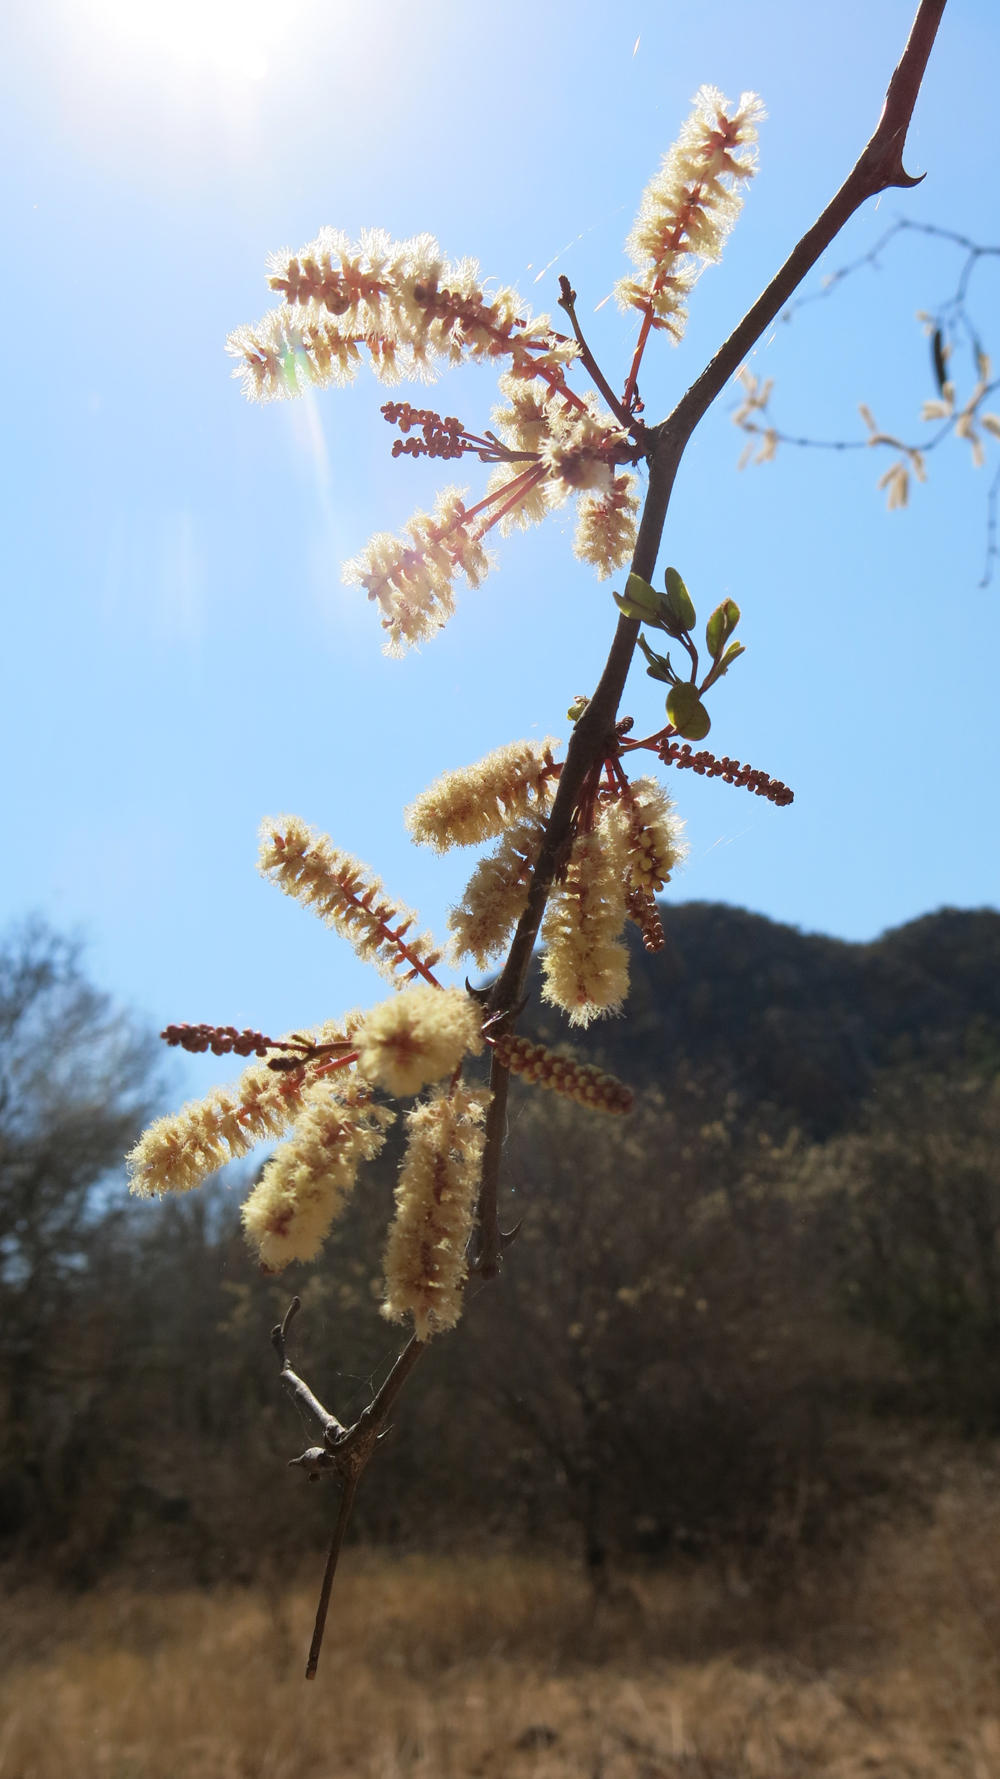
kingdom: Plantae
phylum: Tracheophyta
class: Magnoliopsida
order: Fabales
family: Fabaceae
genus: Senegalia
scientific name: Senegalia nigrescens
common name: Knobthorn
